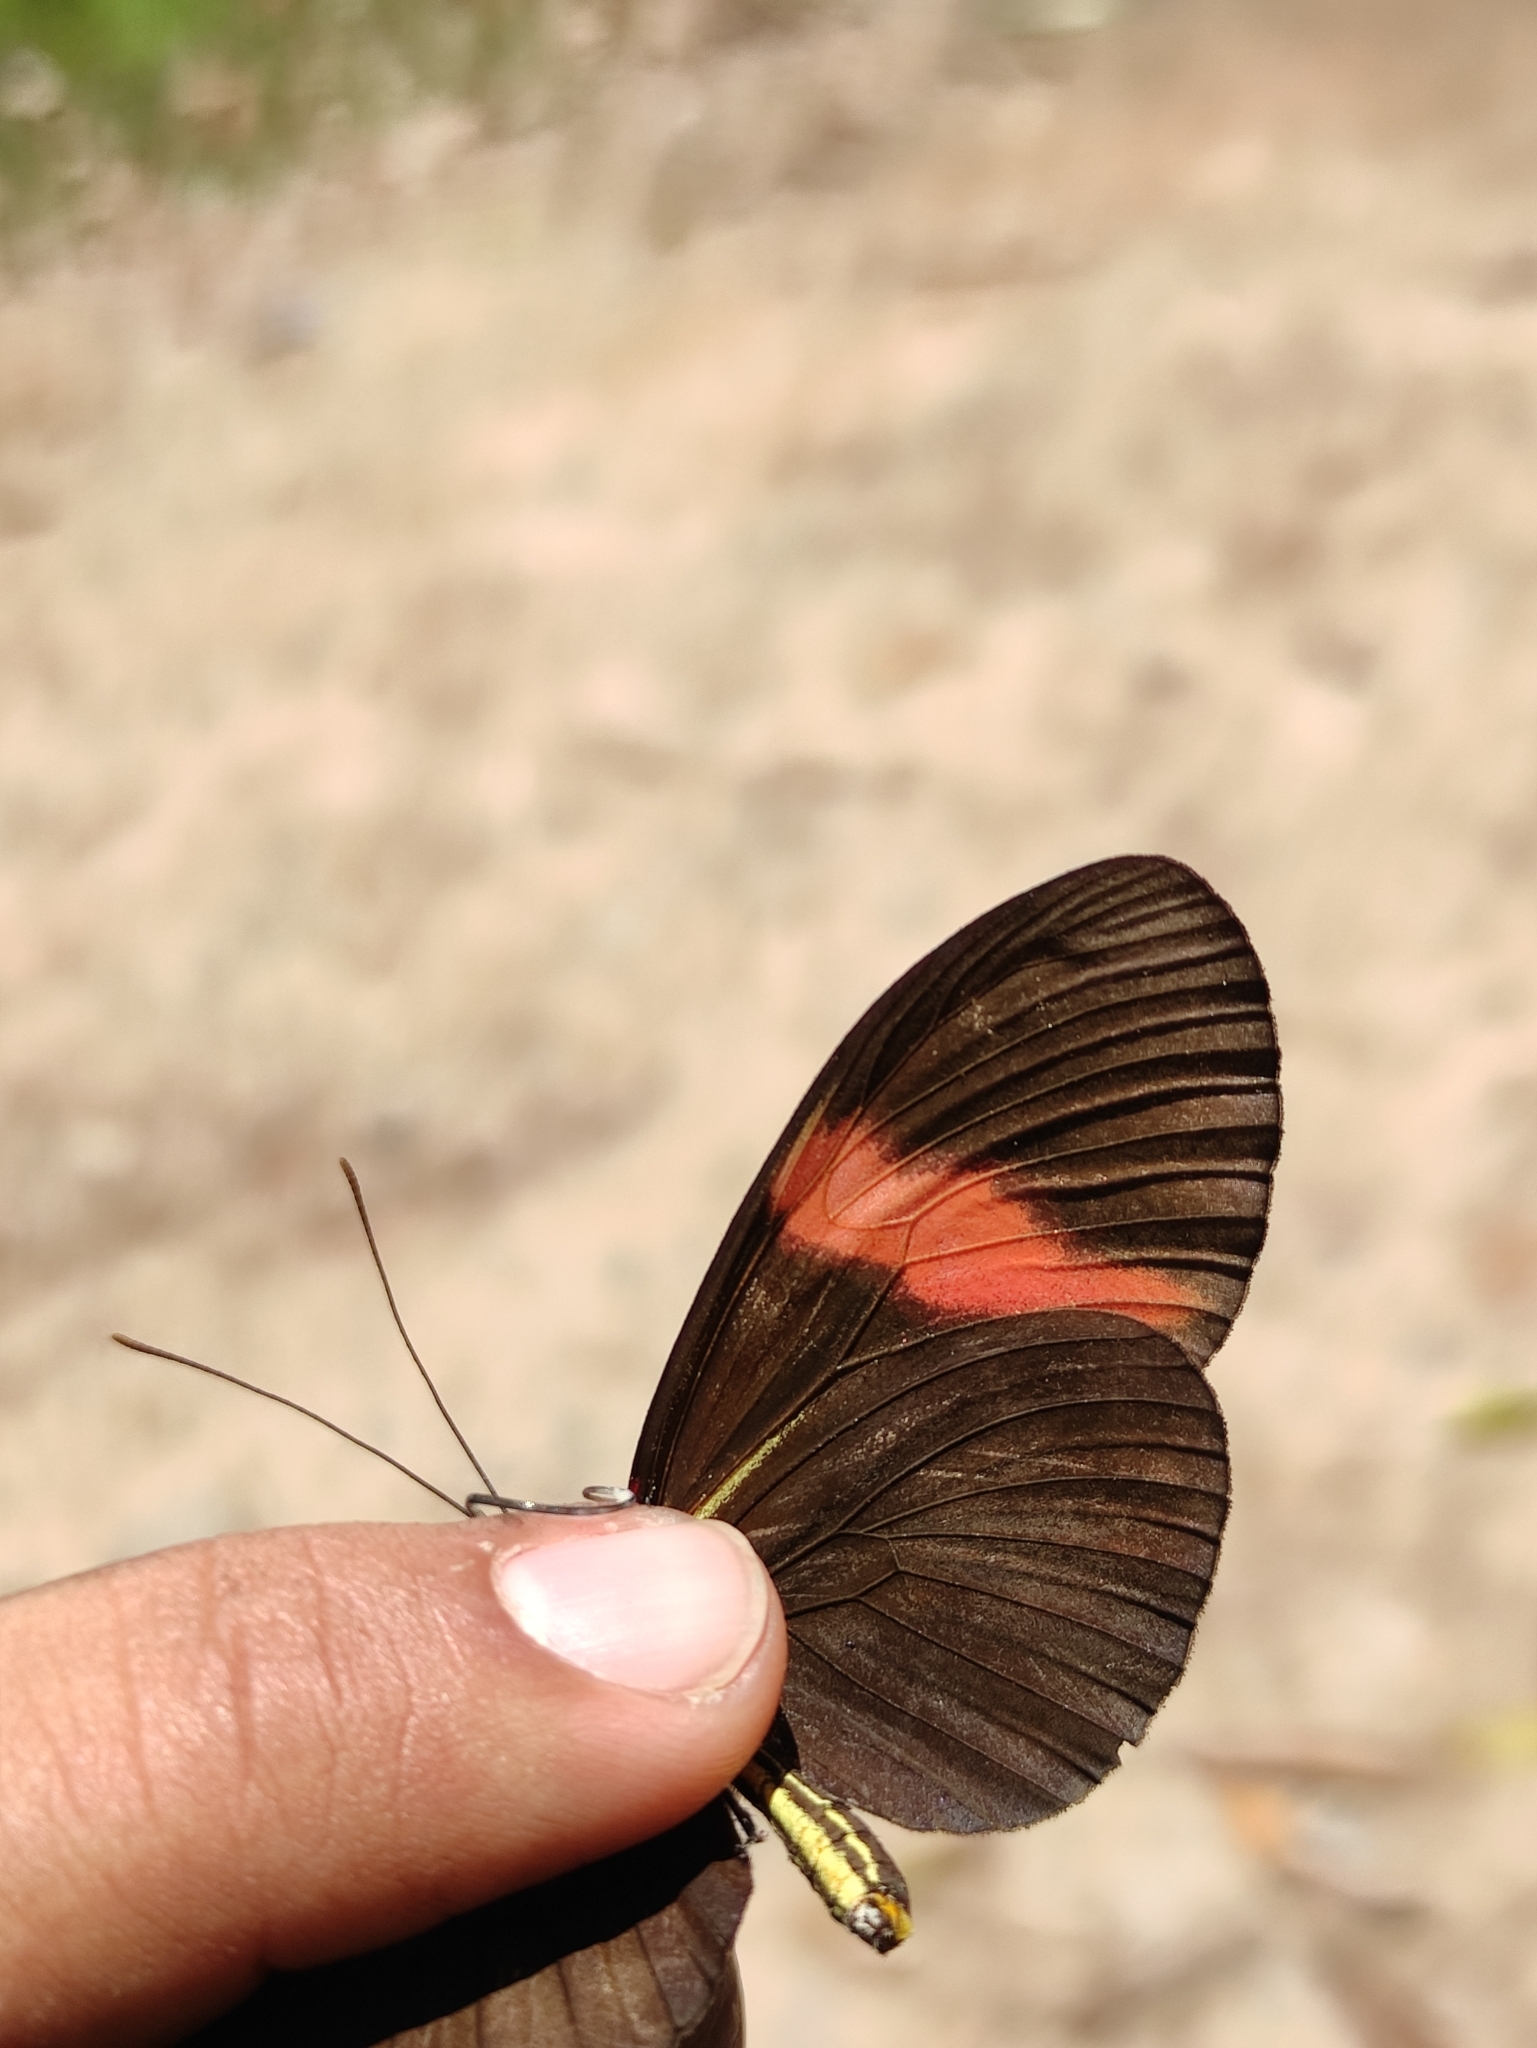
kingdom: Animalia
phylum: Arthropoda
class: Insecta
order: Lepidoptera
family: Nymphalidae
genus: Heliconius
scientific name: Heliconius melpomene
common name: Postman
